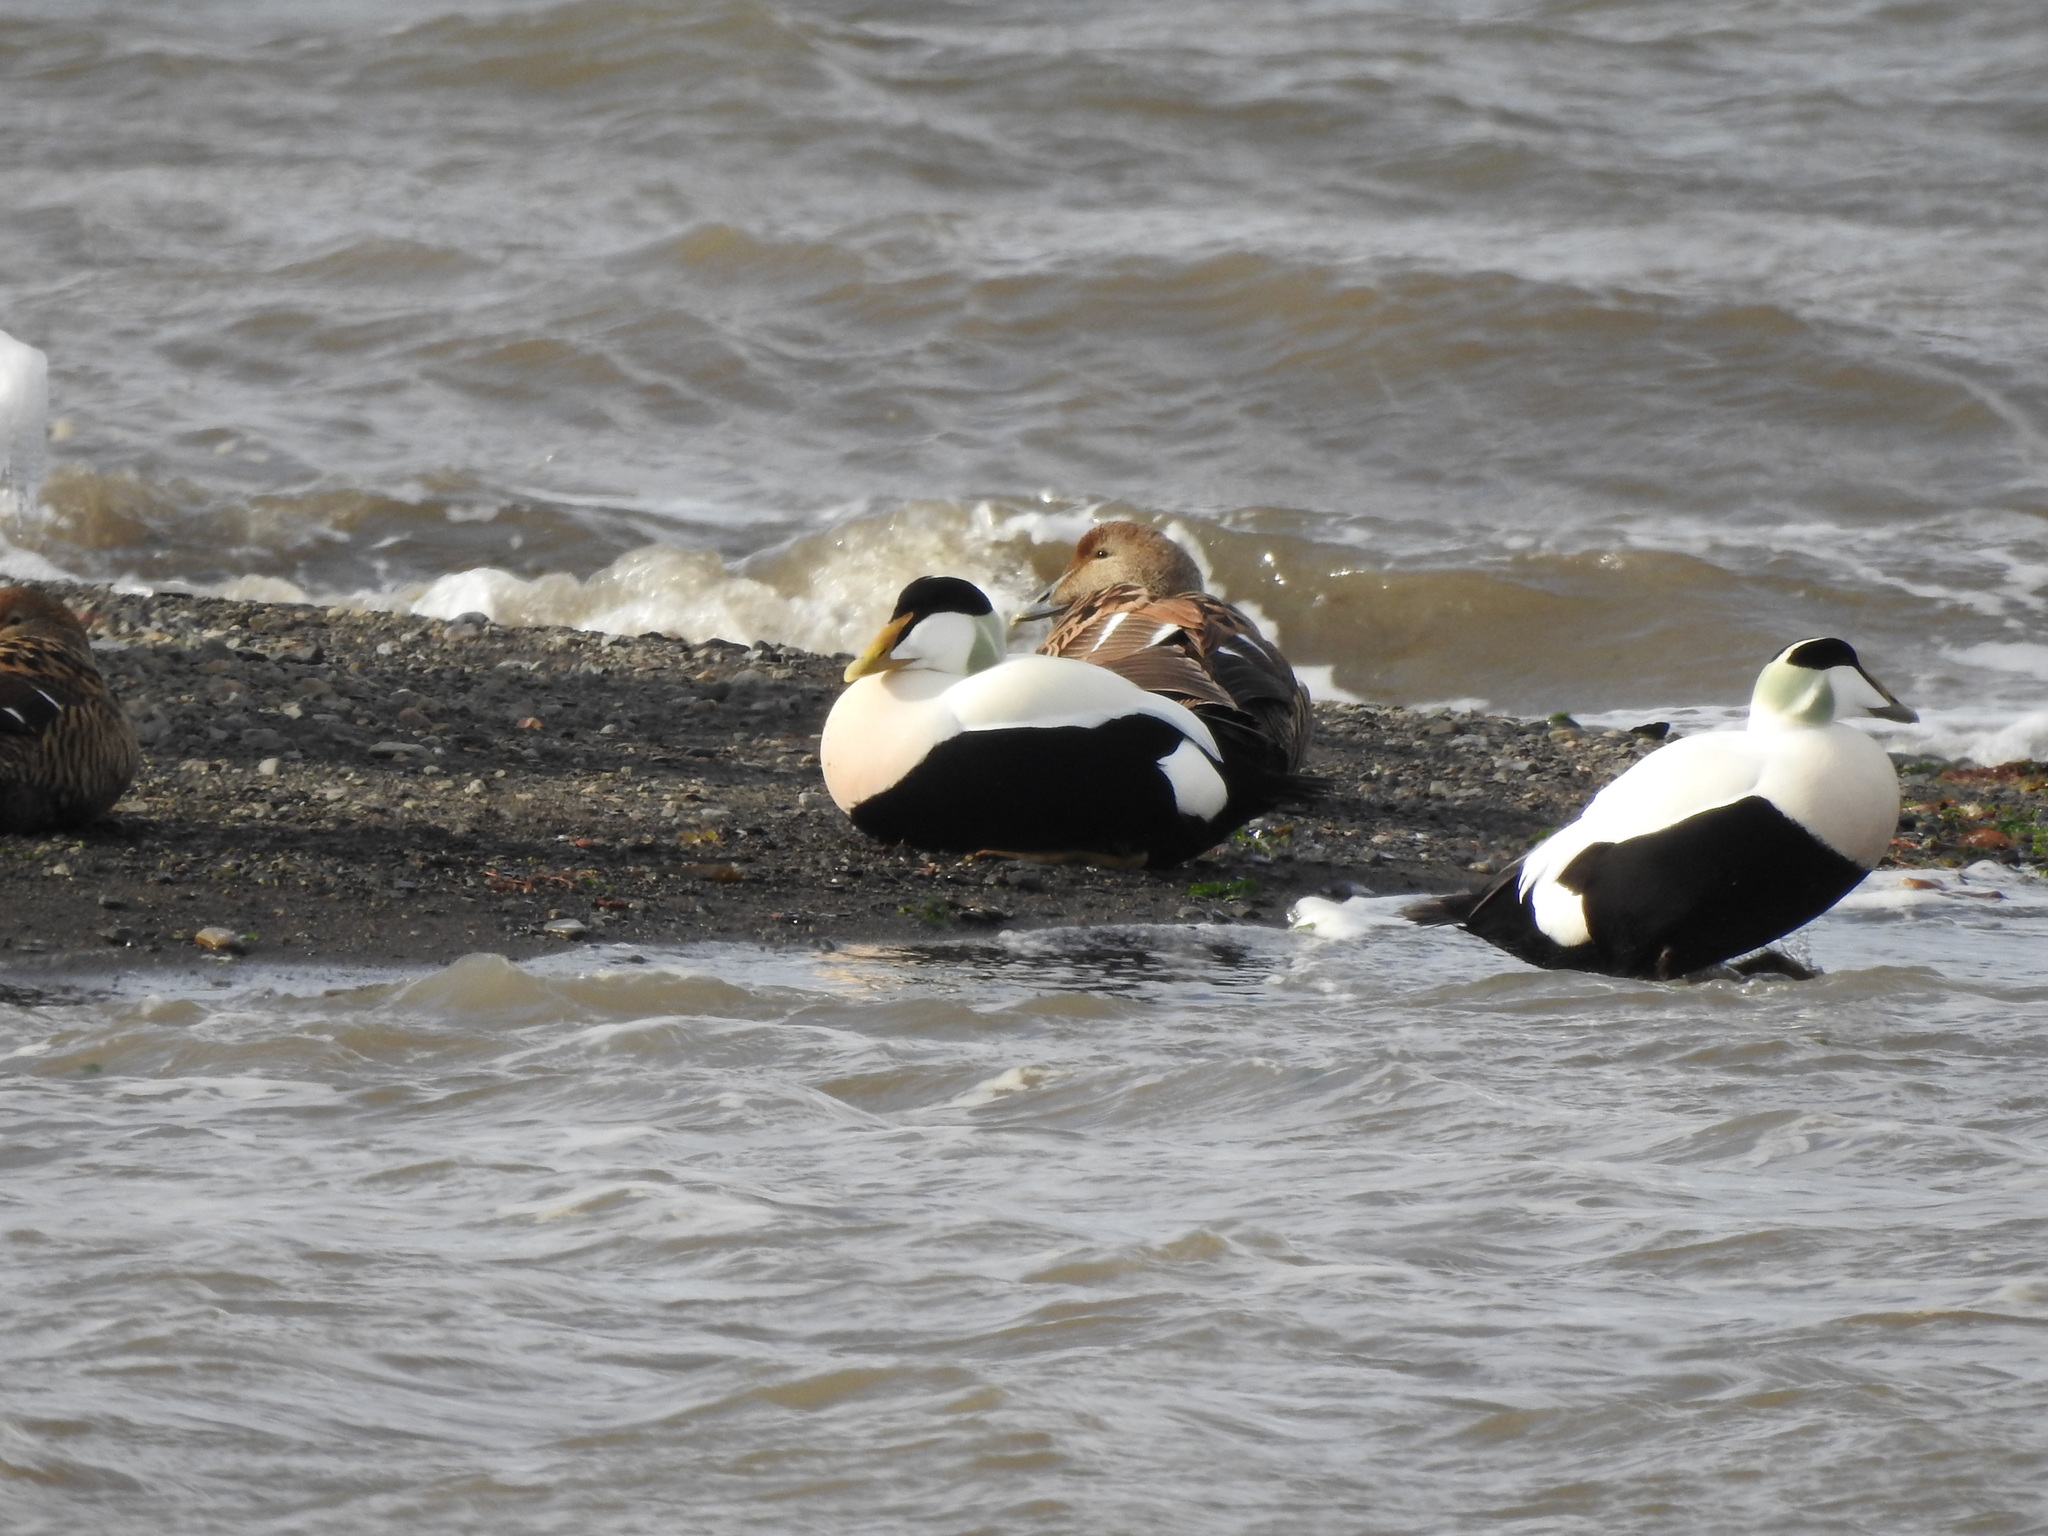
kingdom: Animalia
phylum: Chordata
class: Aves
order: Anseriformes
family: Anatidae
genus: Somateria
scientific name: Somateria mollissima
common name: Common eider
